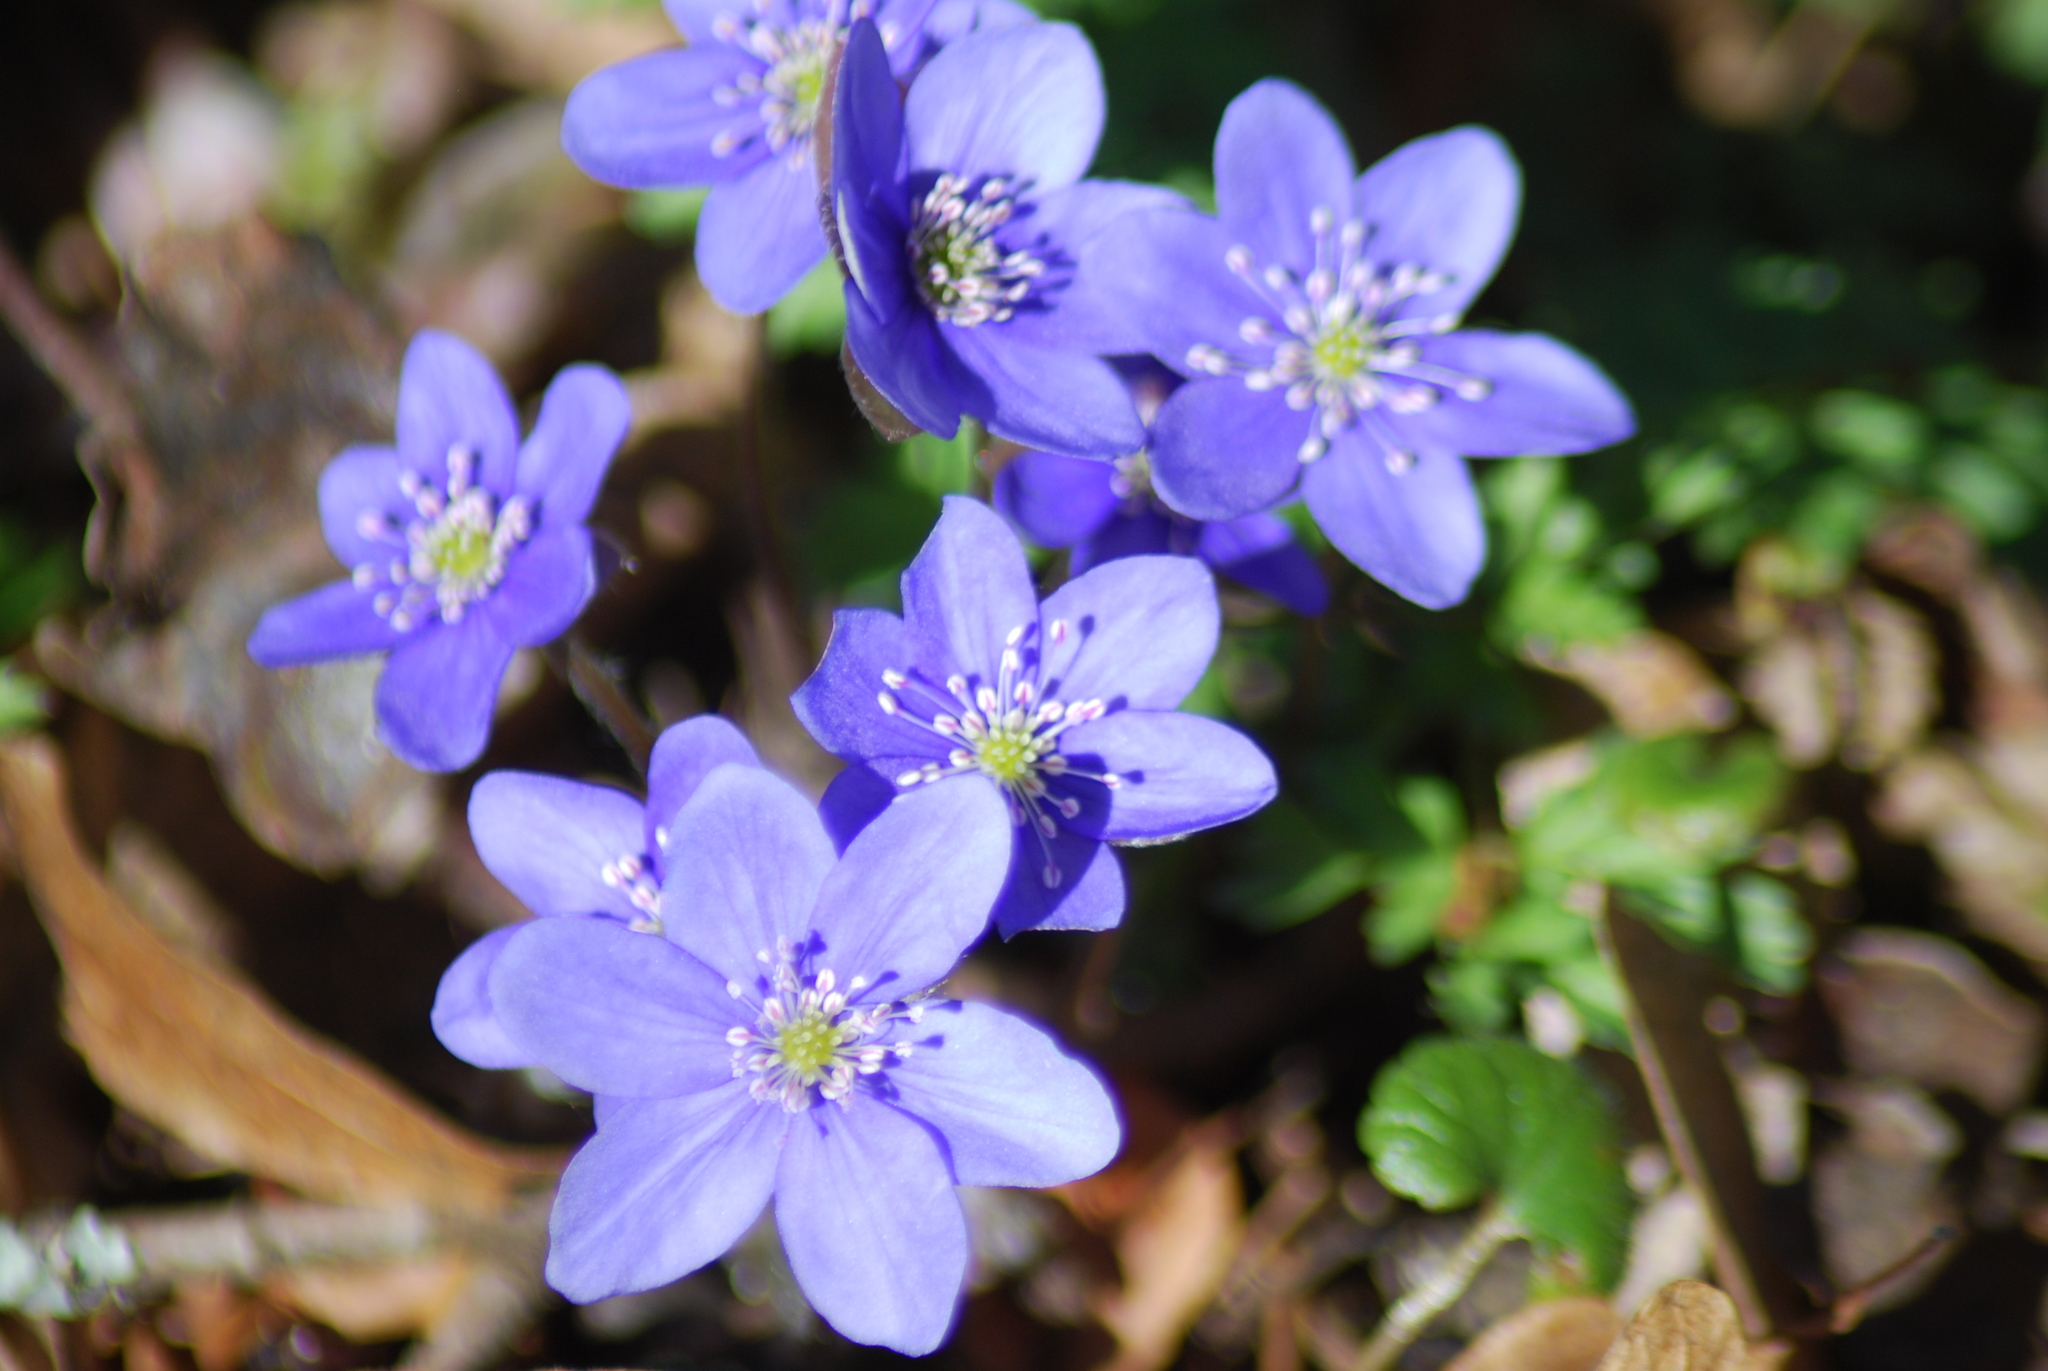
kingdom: Plantae
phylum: Tracheophyta
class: Magnoliopsida
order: Ranunculales
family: Ranunculaceae
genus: Hepatica
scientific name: Hepatica nobilis
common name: Liverleaf
